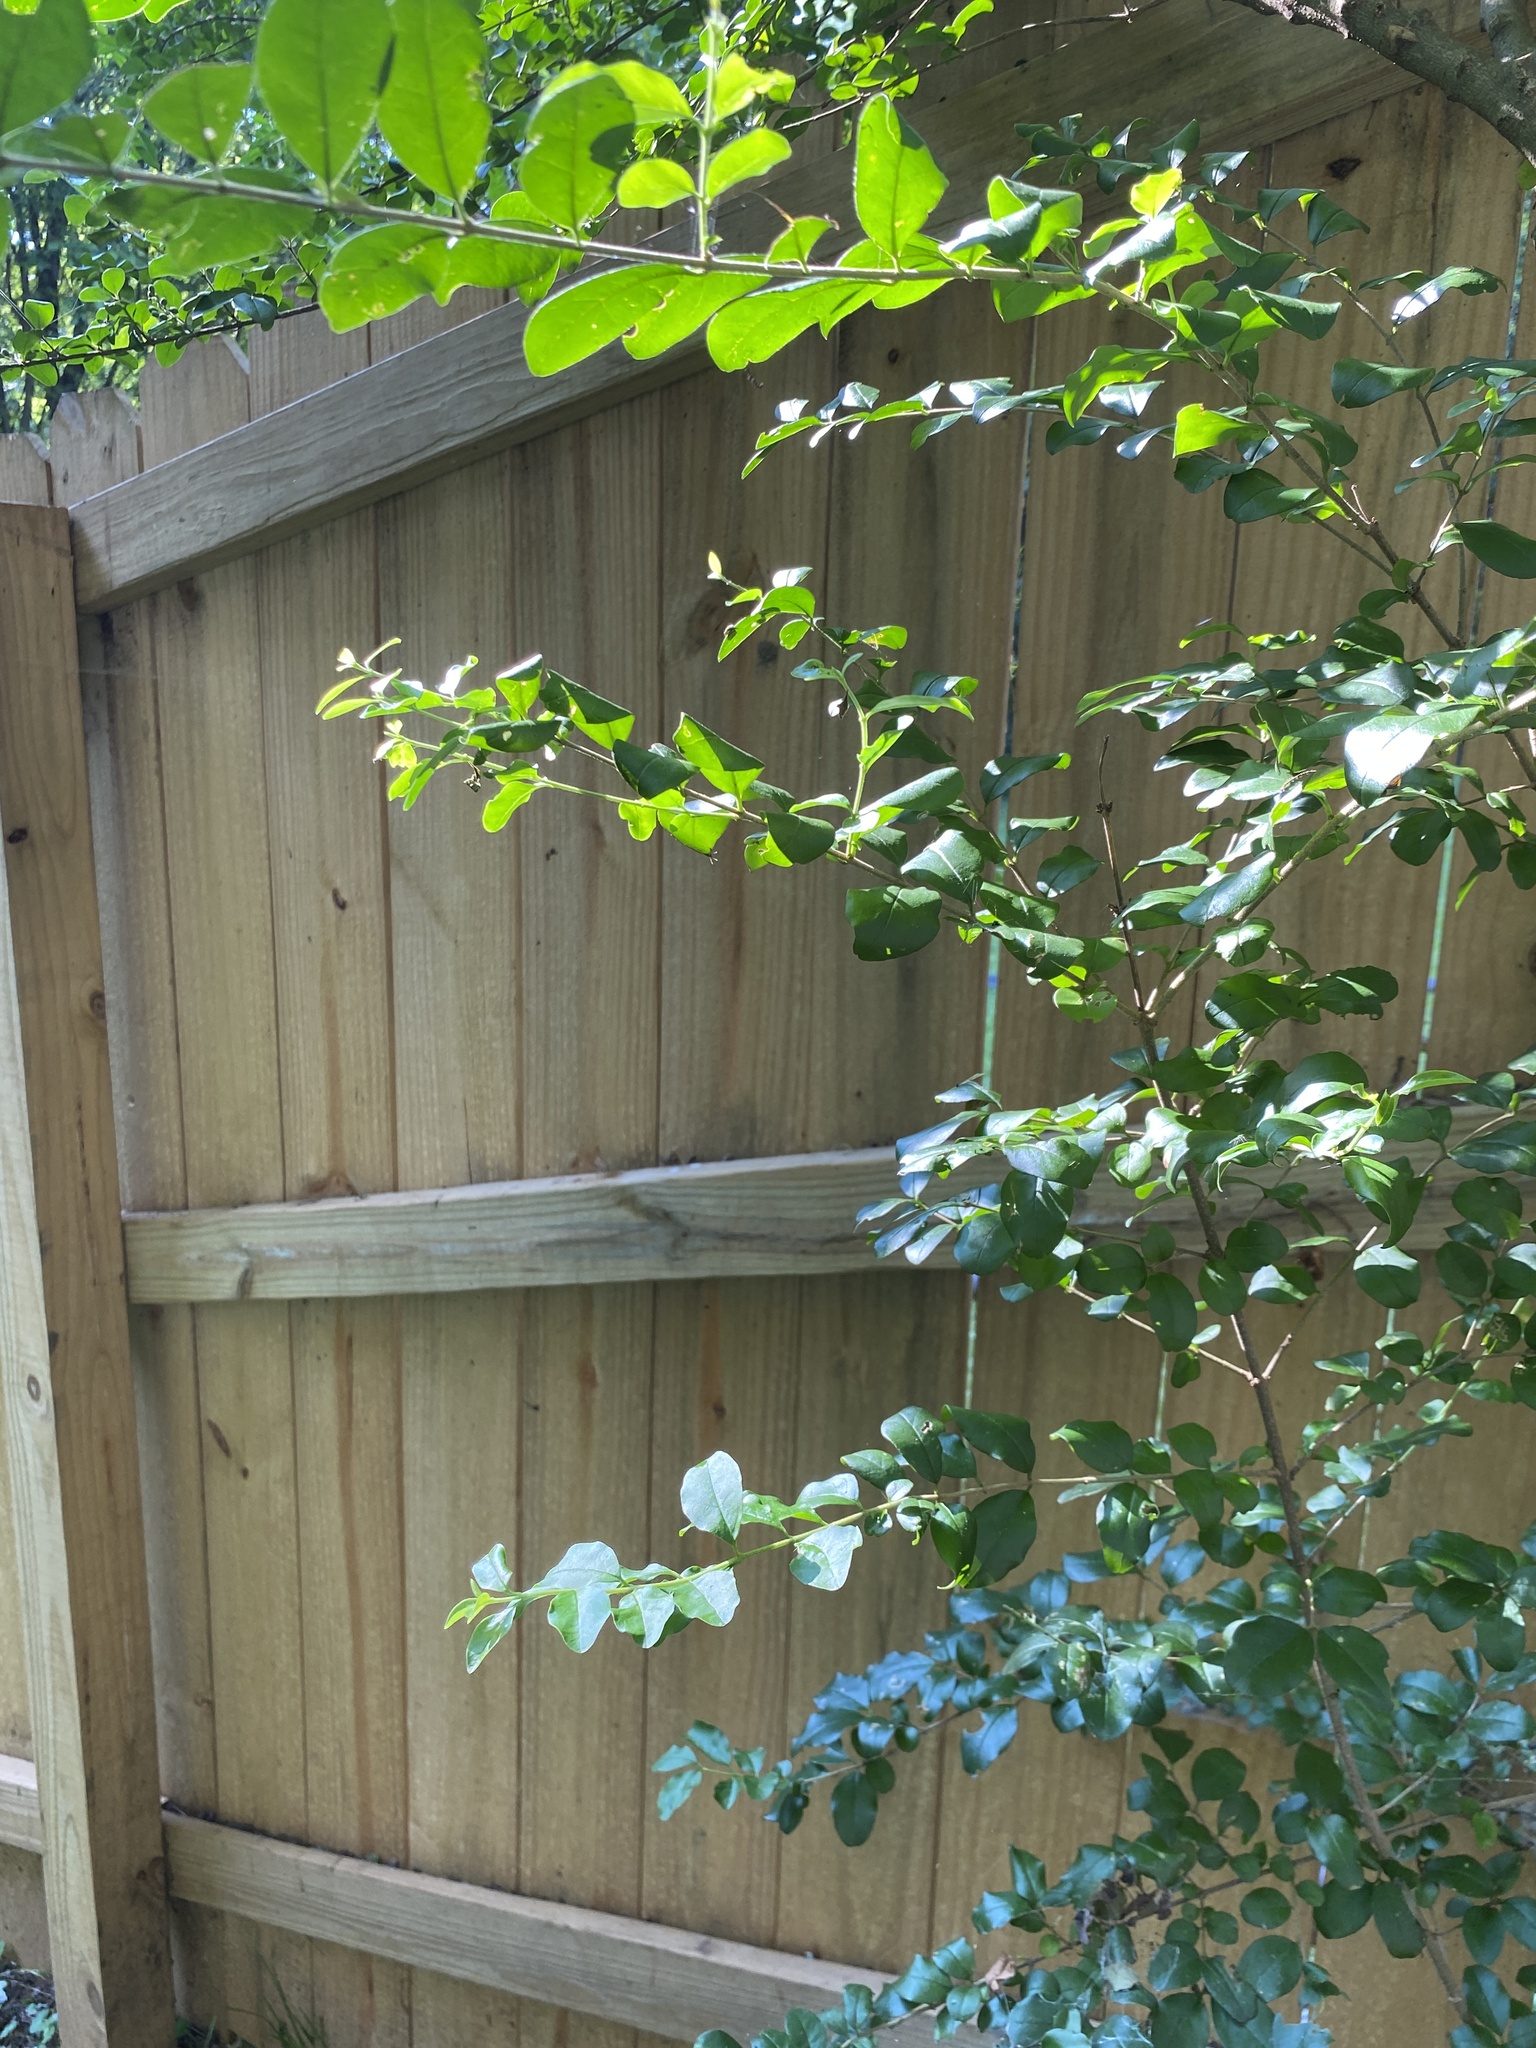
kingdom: Plantae
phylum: Tracheophyta
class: Magnoliopsida
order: Lamiales
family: Oleaceae
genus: Ligustrum
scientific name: Ligustrum sinense
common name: Chinese privet
